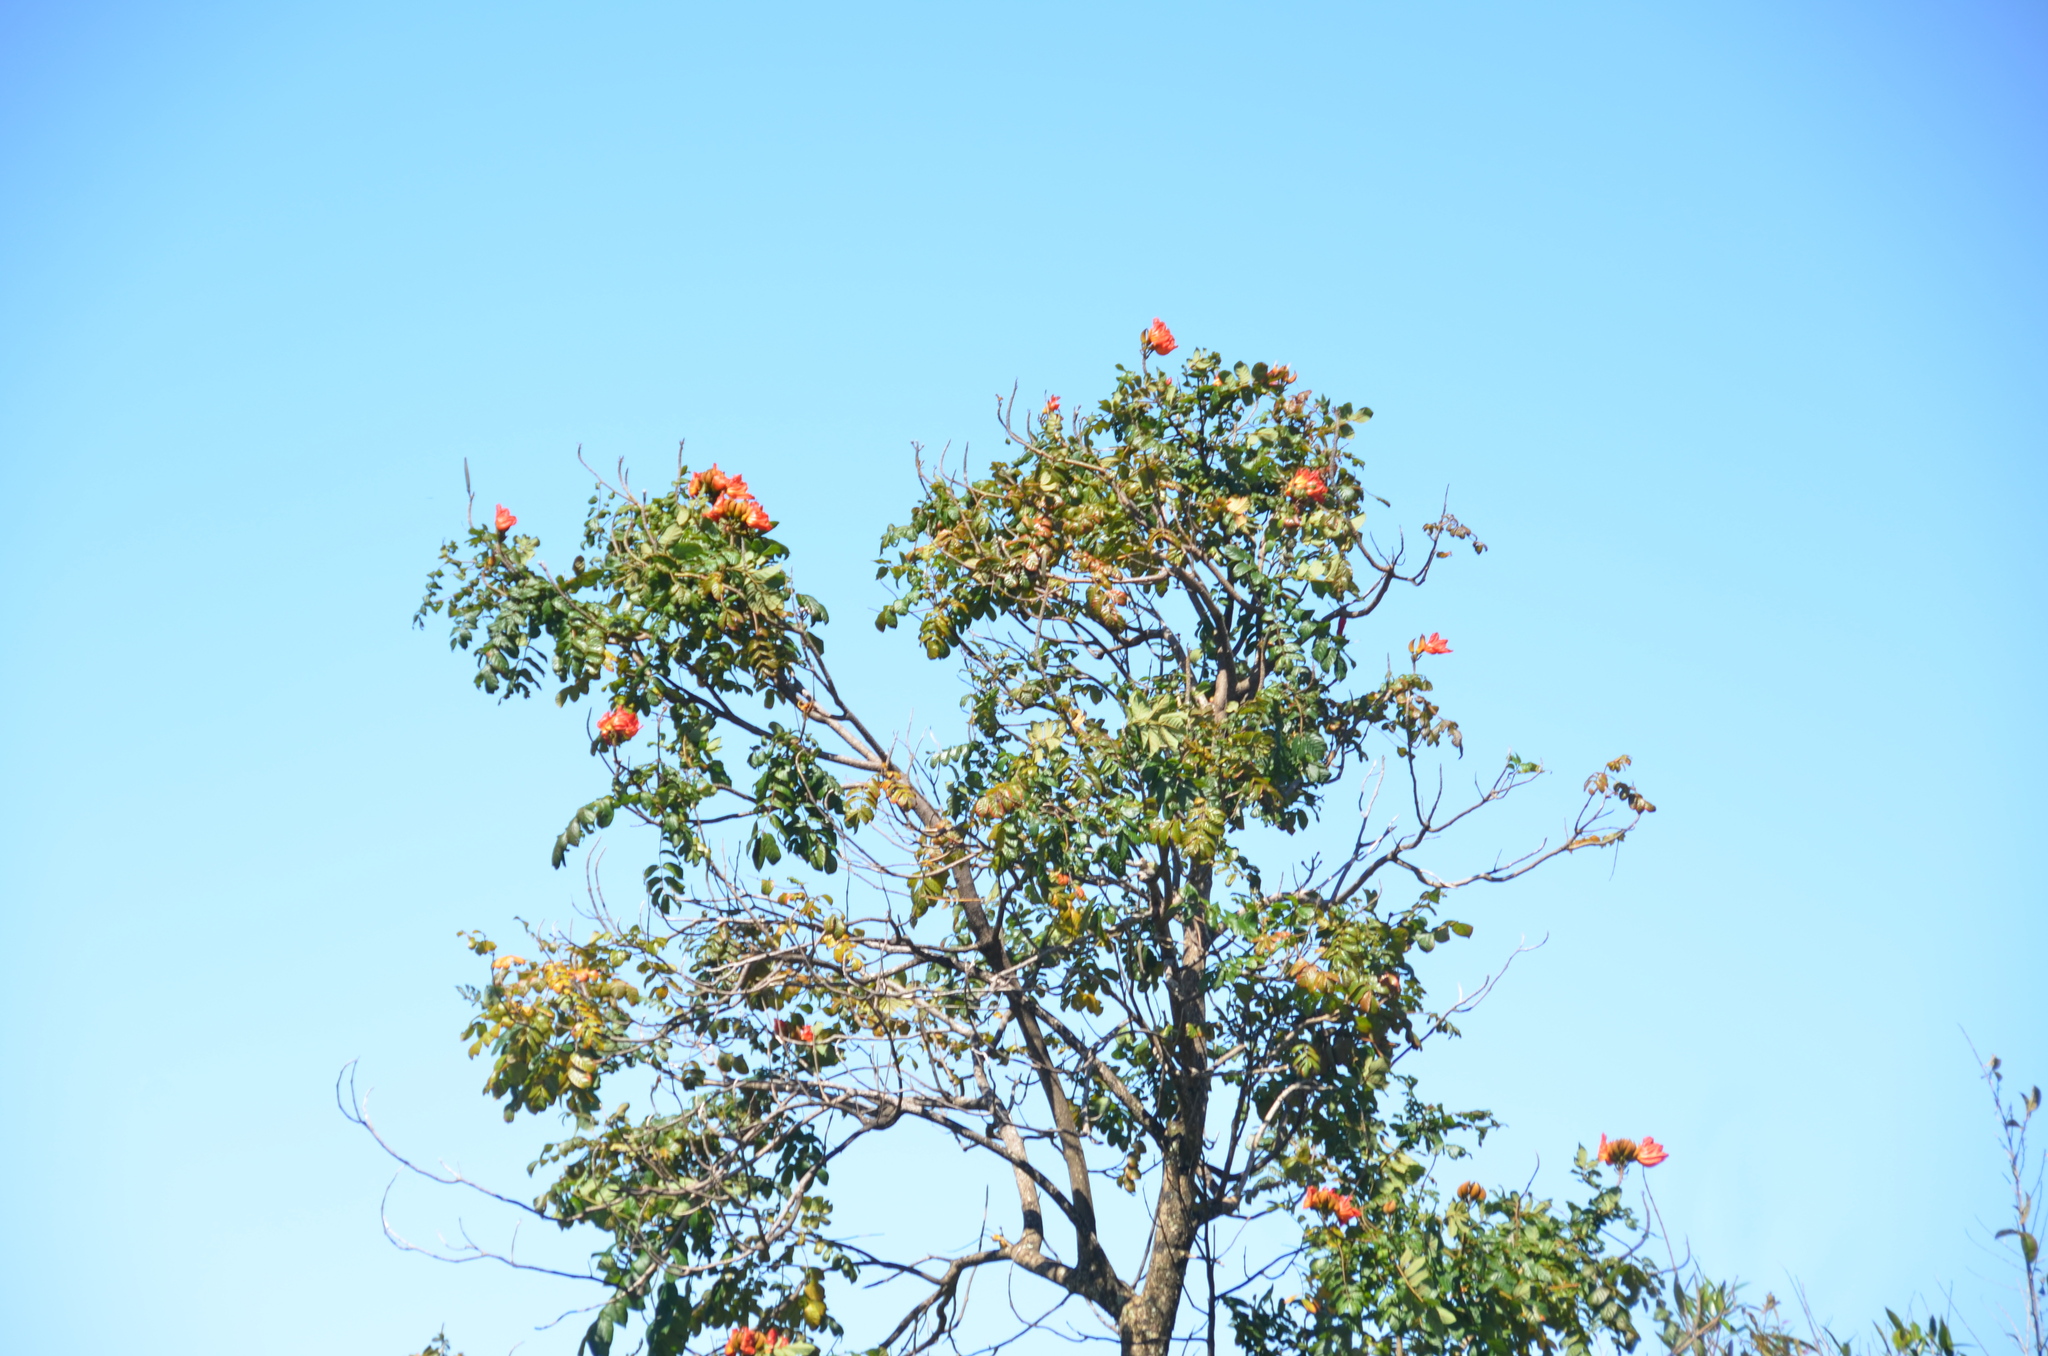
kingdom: Plantae
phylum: Tracheophyta
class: Magnoliopsida
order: Lamiales
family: Bignoniaceae
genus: Spathodea
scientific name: Spathodea campanulata
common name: African tuliptree
